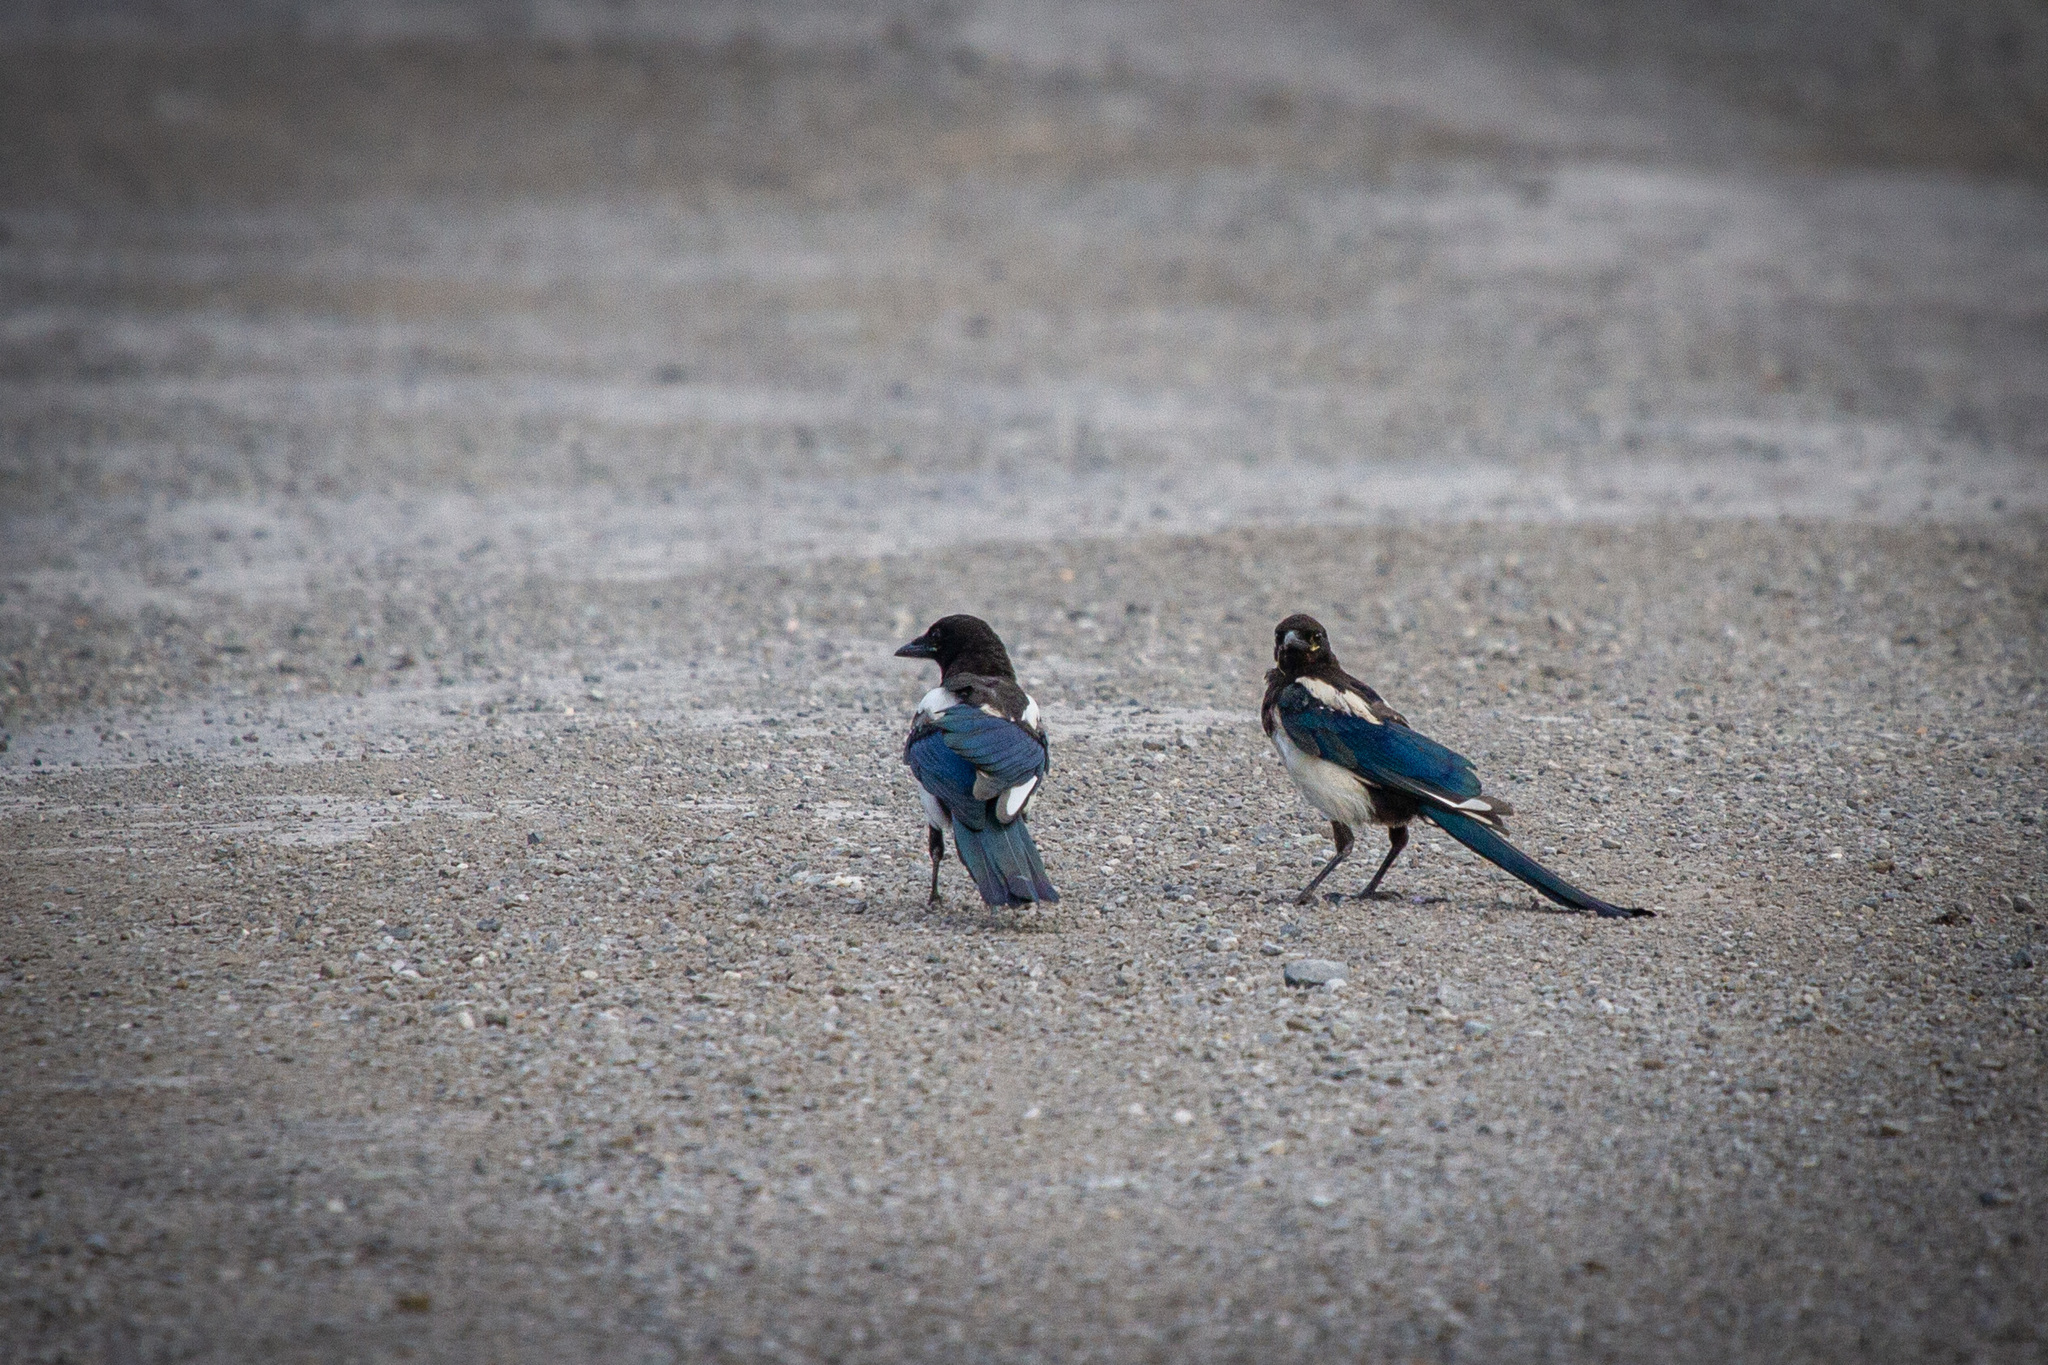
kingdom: Animalia
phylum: Chordata
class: Aves
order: Passeriformes
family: Corvidae
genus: Pica
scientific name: Pica pica
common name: Eurasian magpie
